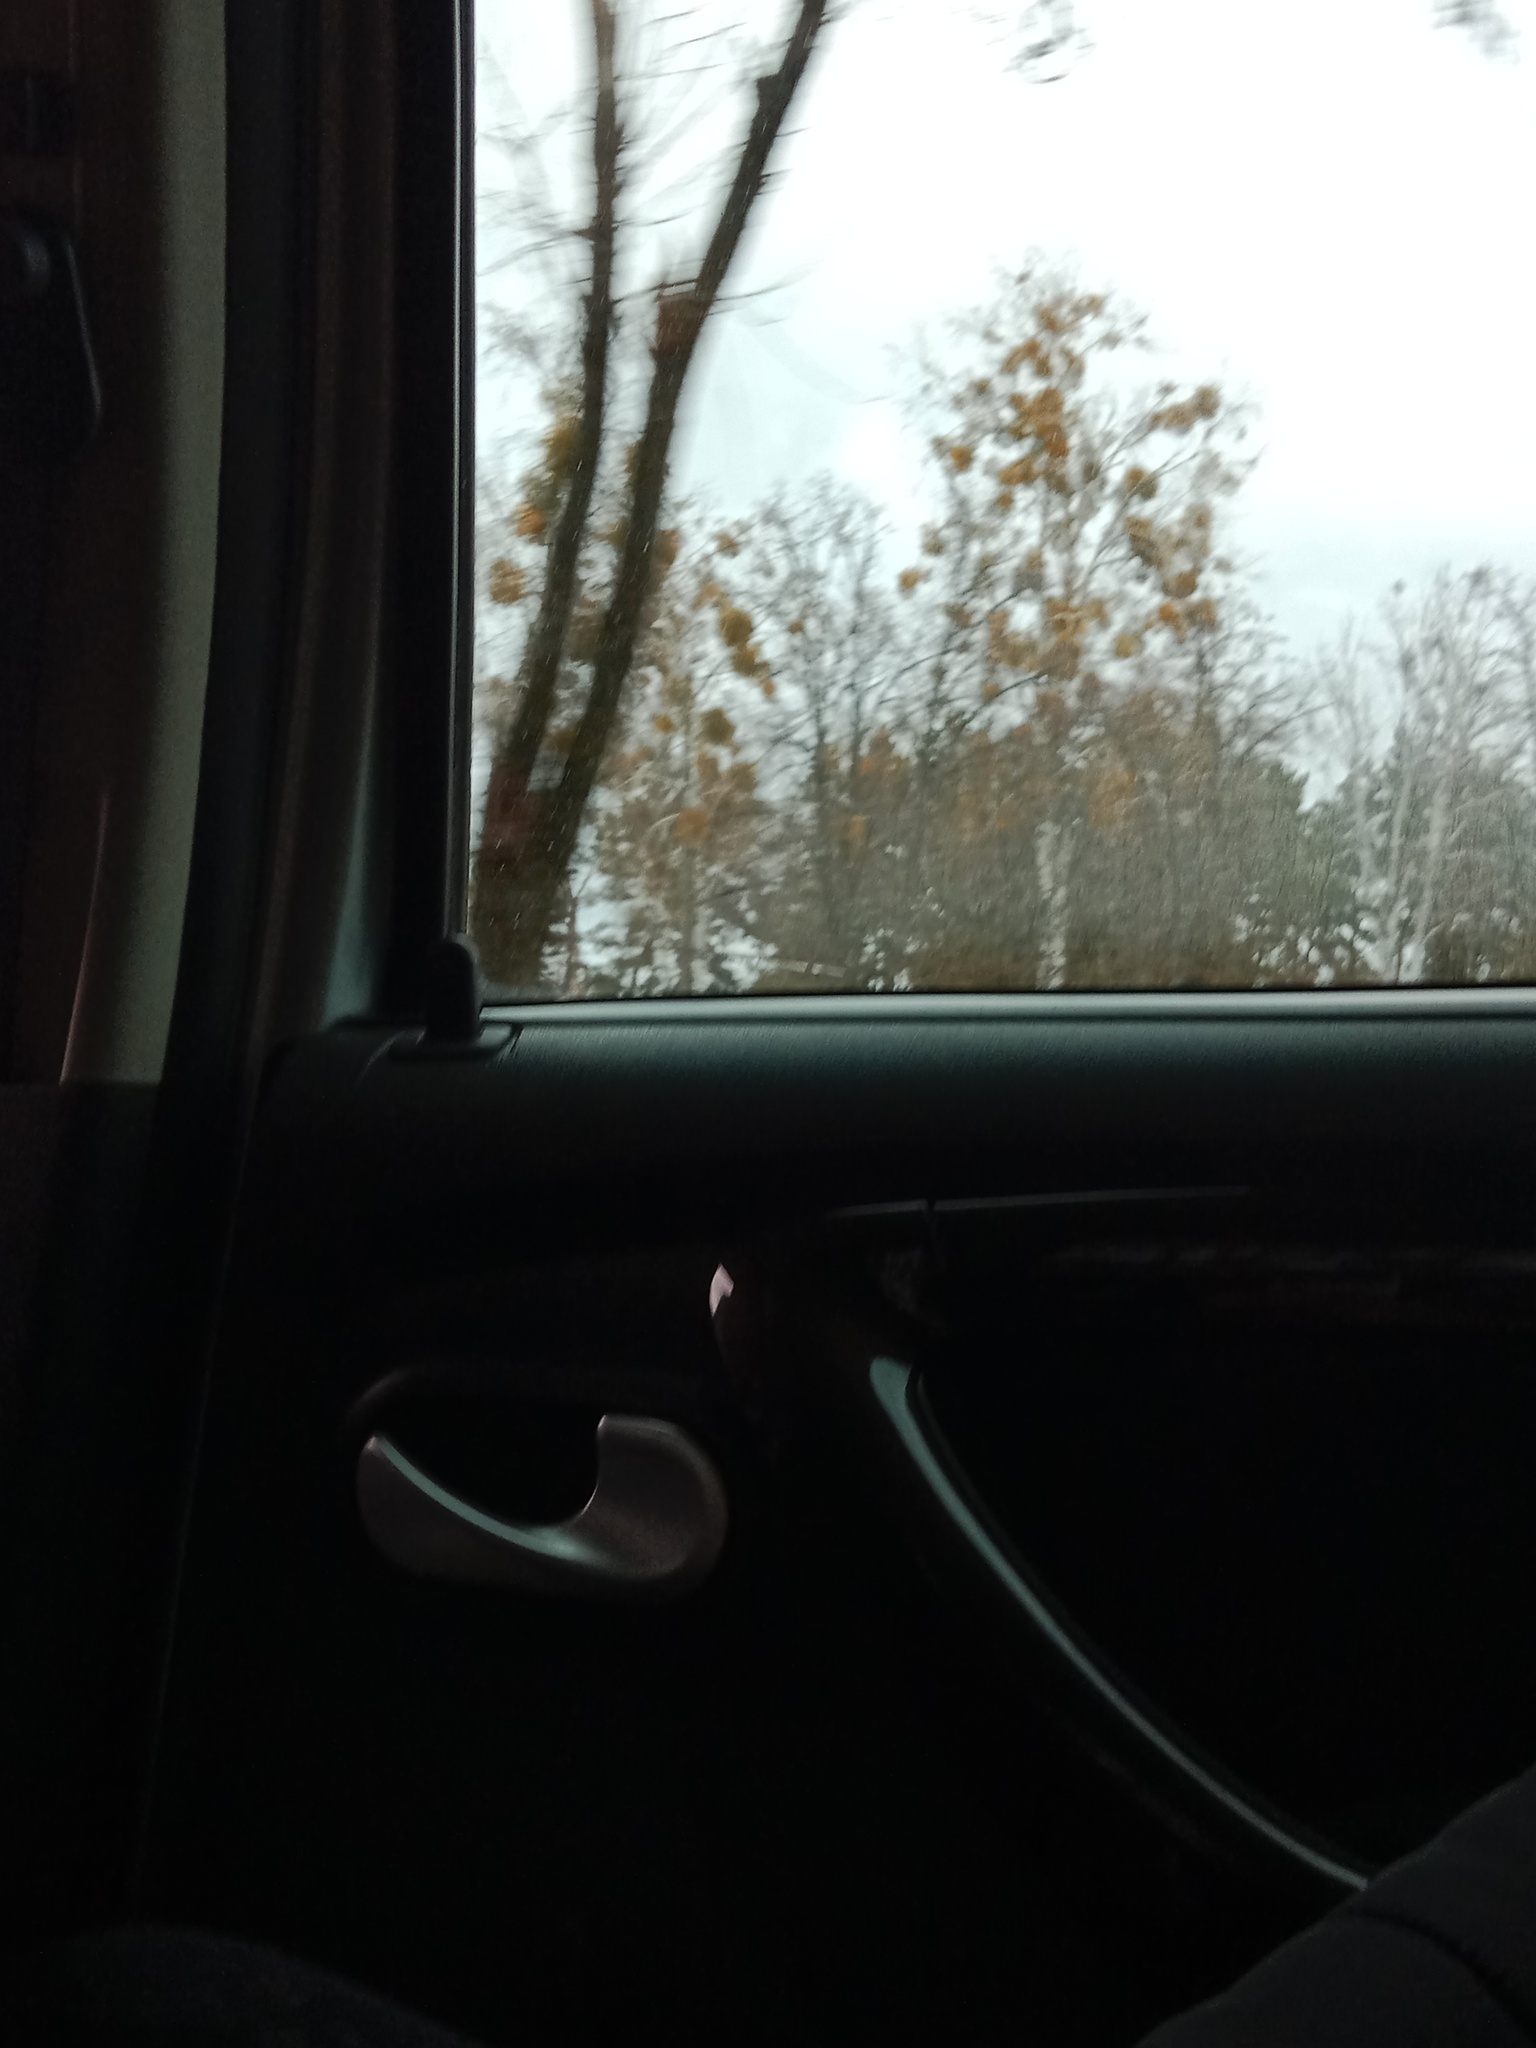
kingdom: Plantae
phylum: Tracheophyta
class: Magnoliopsida
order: Santalales
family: Viscaceae
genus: Viscum
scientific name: Viscum album
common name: Mistletoe
